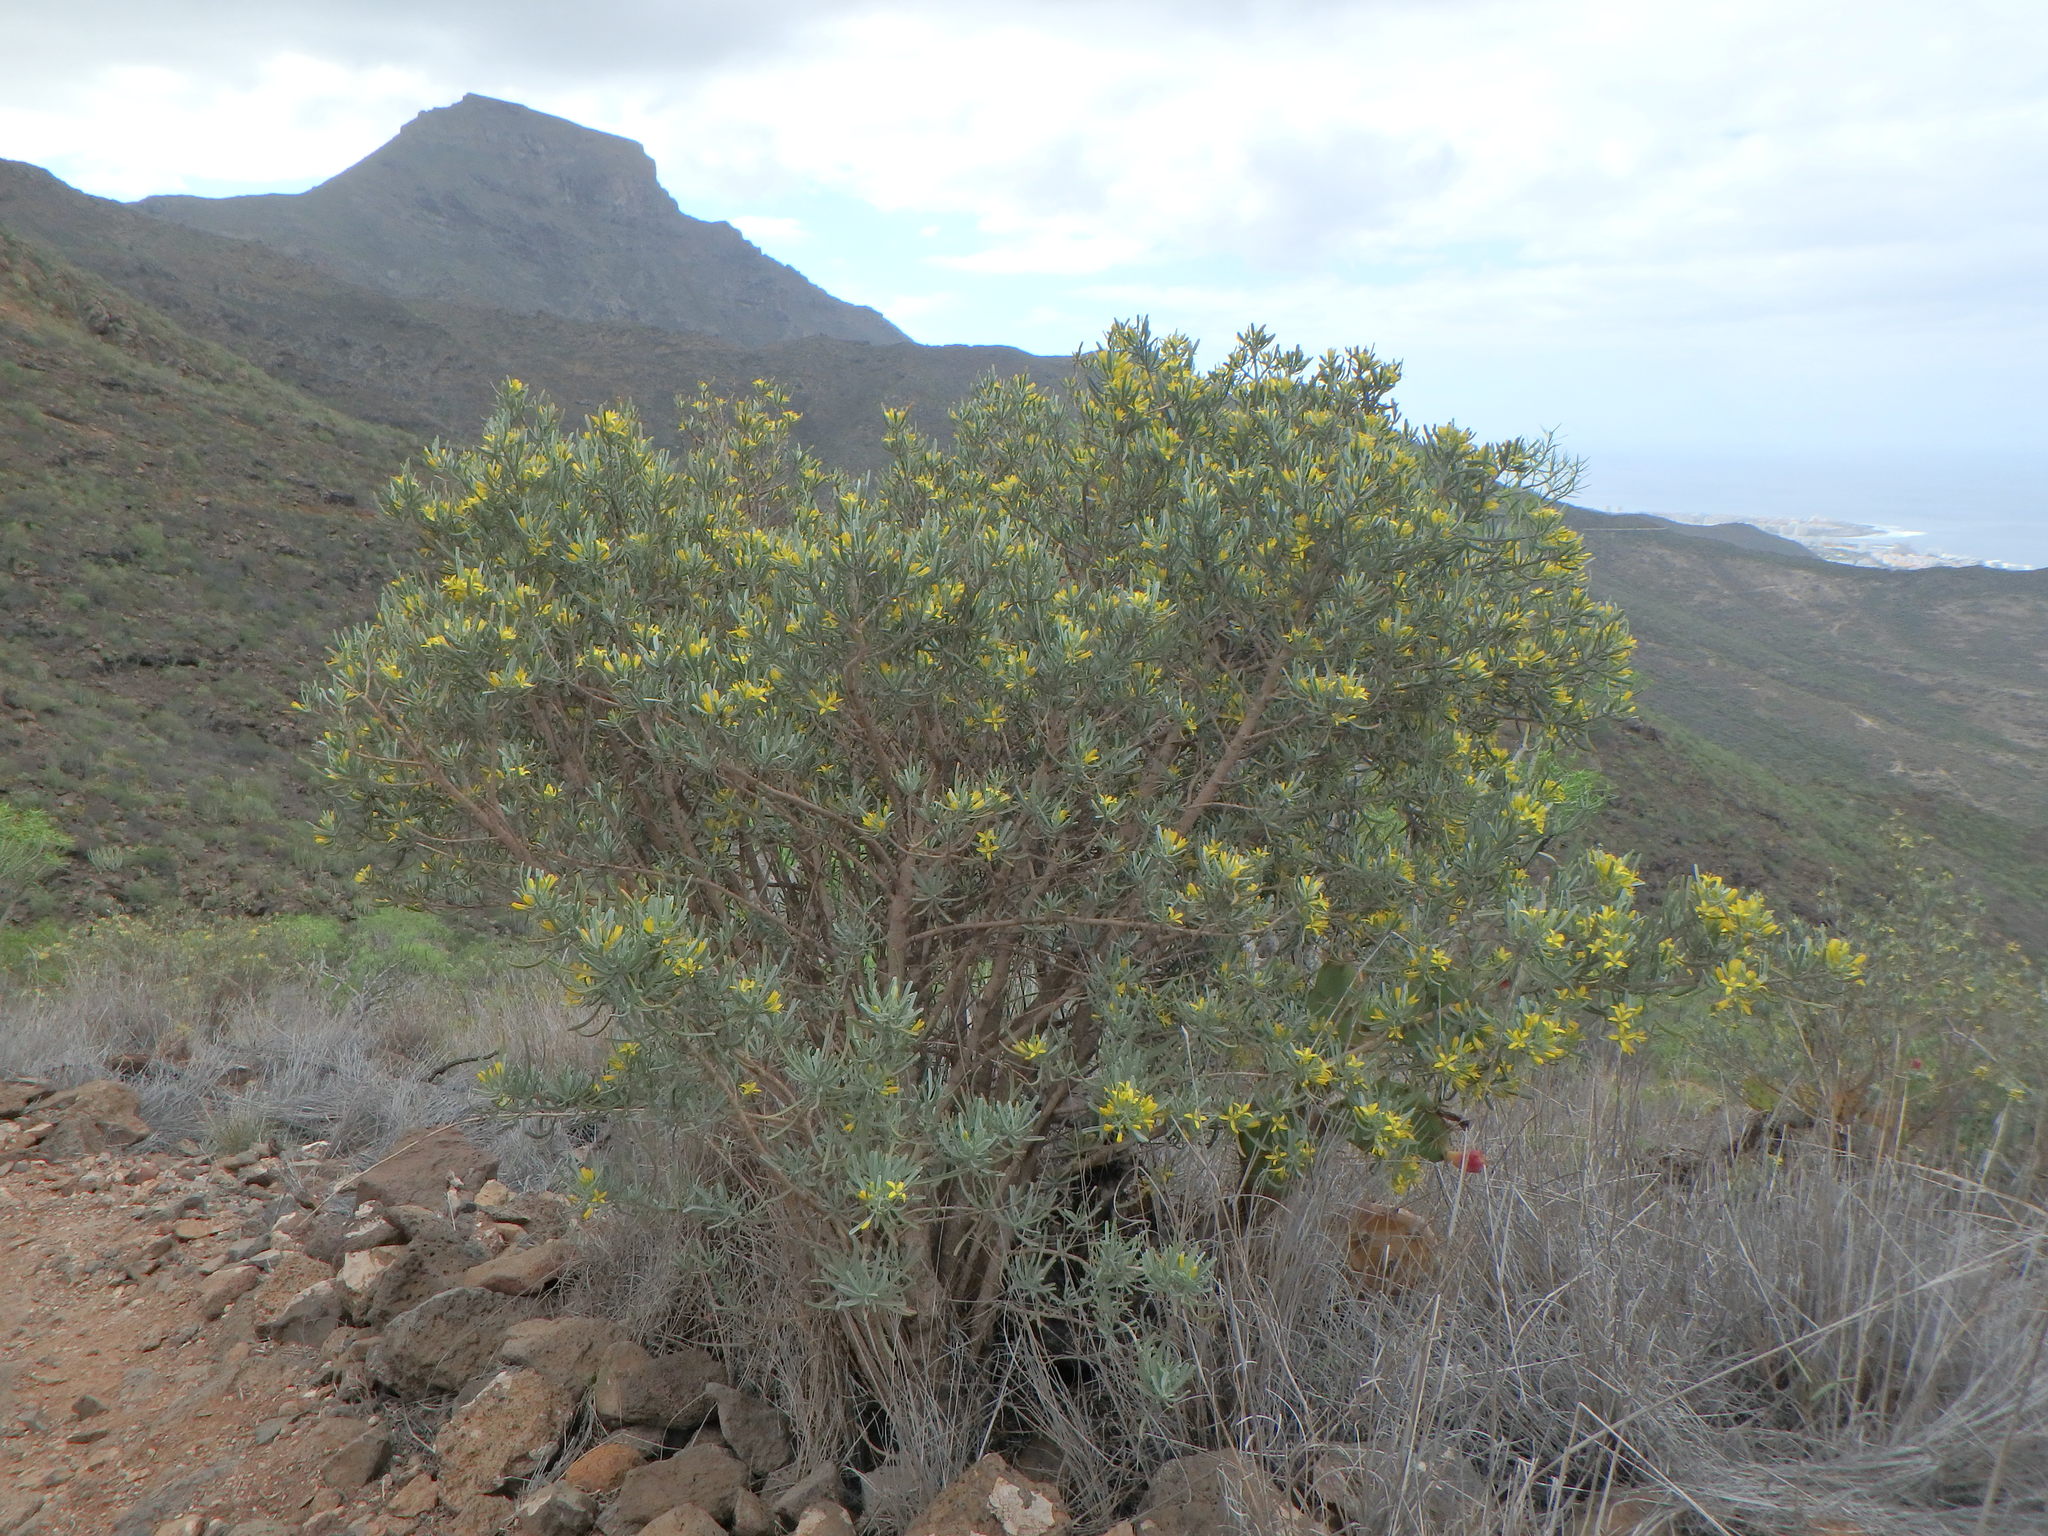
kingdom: Plantae
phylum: Tracheophyta
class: Magnoliopsida
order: Sapindales
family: Rutaceae
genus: Cneorum
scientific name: Cneorum pulverulentum
